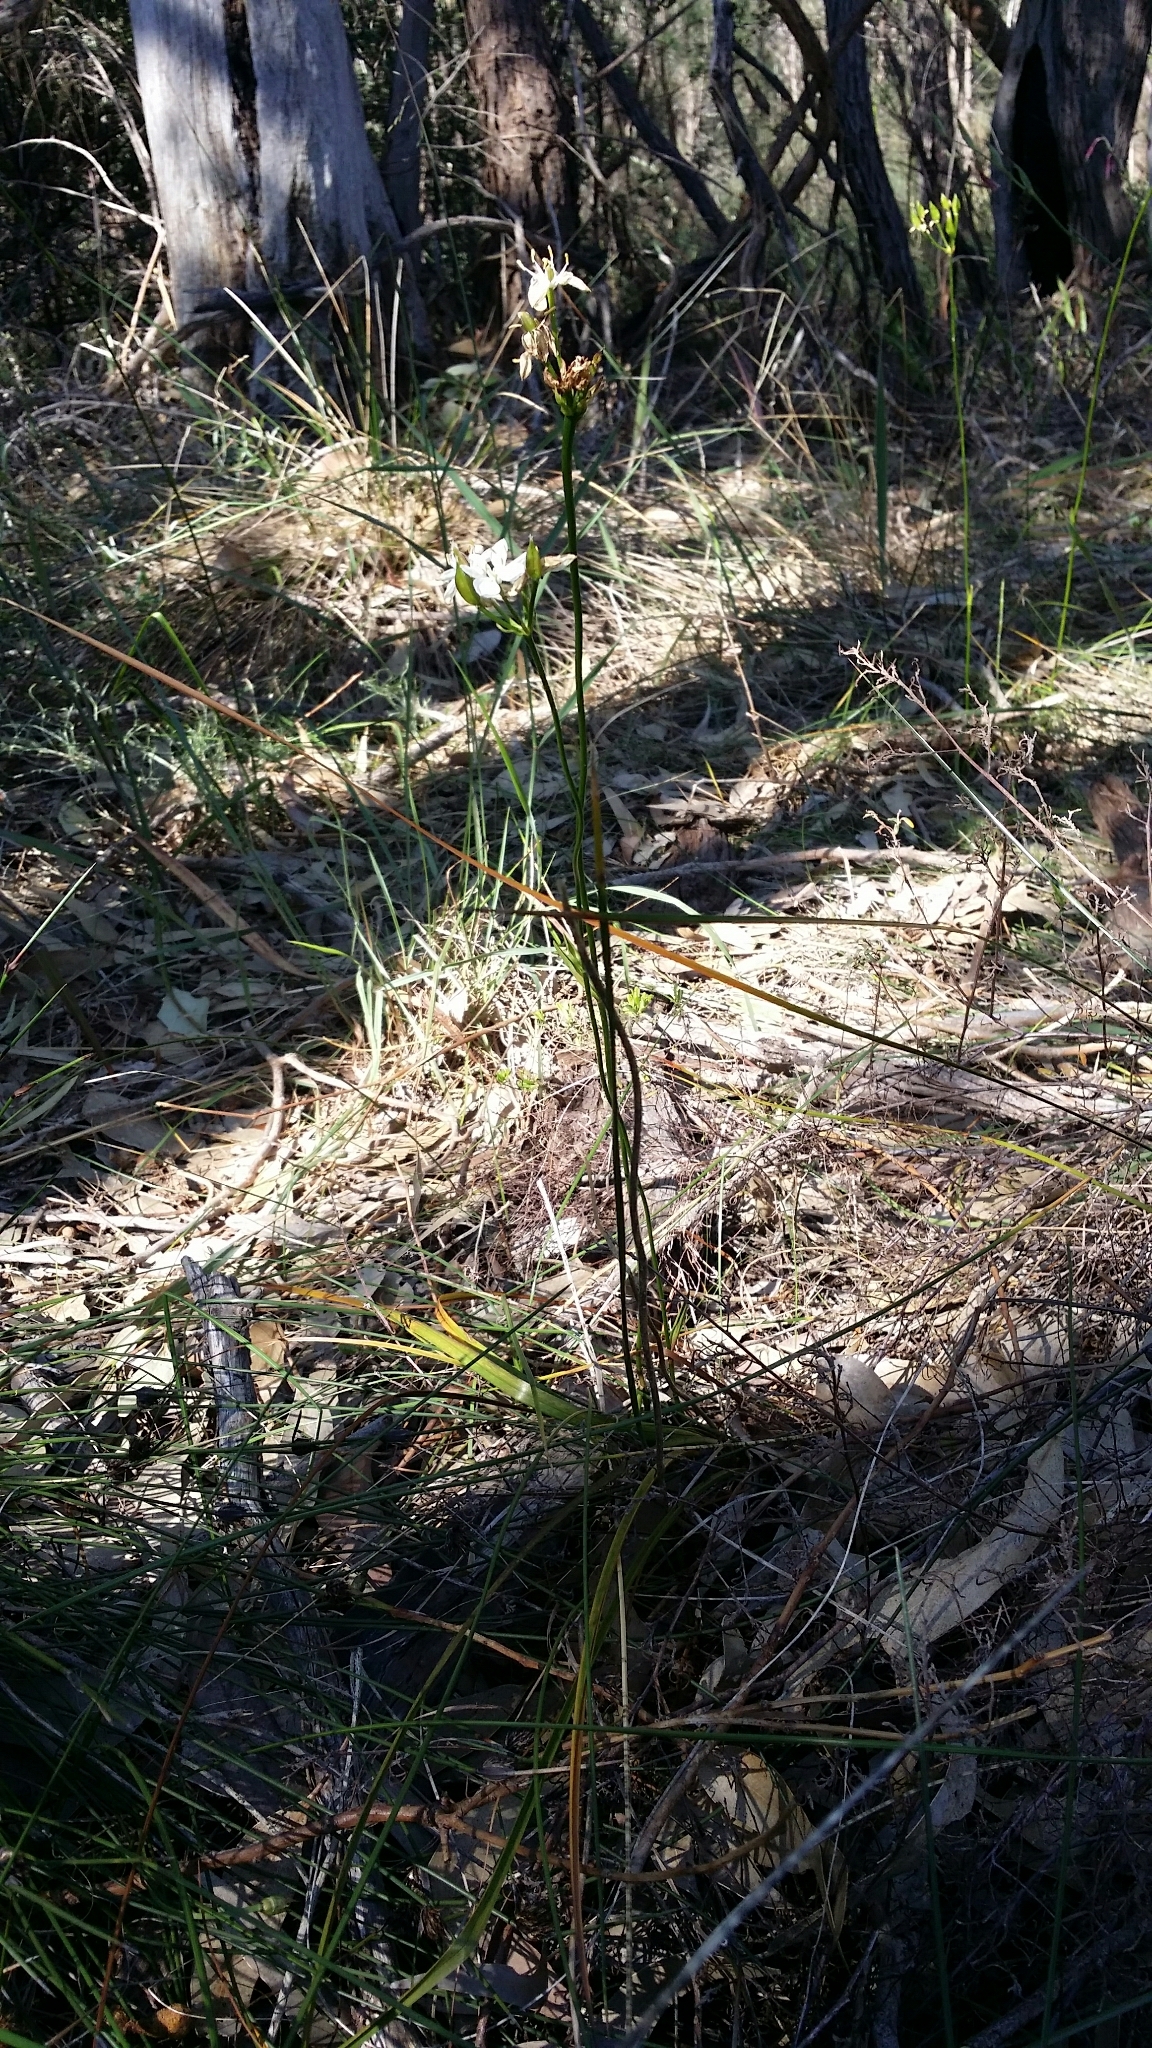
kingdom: Plantae
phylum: Tracheophyta
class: Liliopsida
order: Liliales
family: Colchicaceae
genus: Burchardia
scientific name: Burchardia congesta
